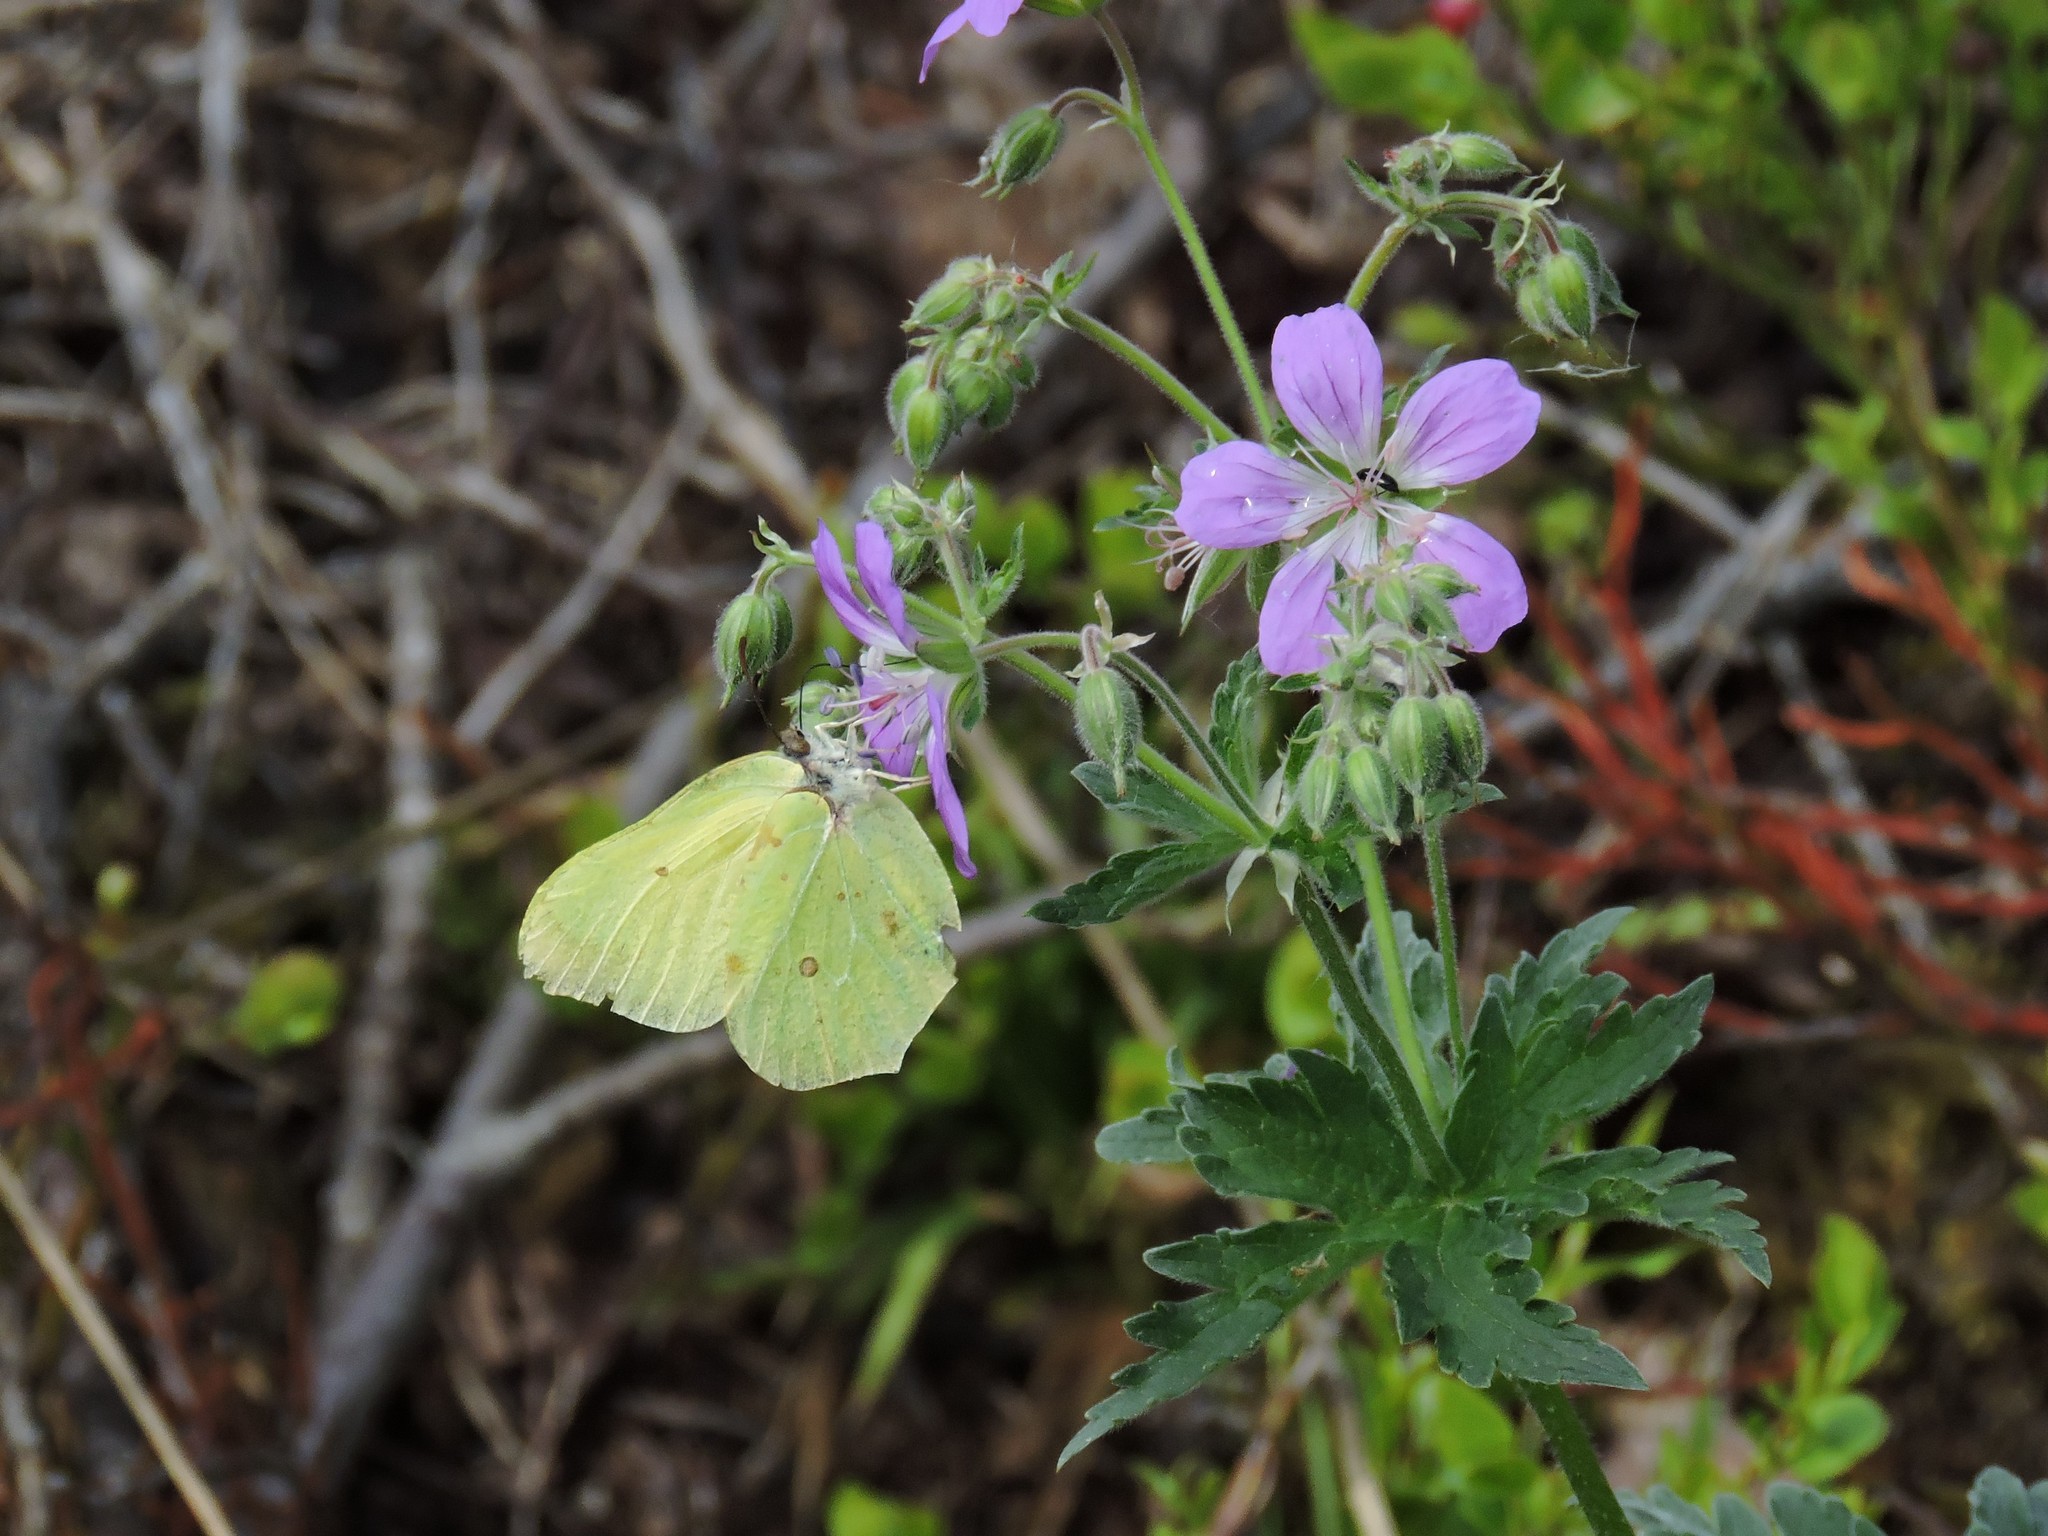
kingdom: Animalia
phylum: Arthropoda
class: Insecta
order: Lepidoptera
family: Pieridae
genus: Gonepteryx
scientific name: Gonepteryx rhamni
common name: Brimstone
